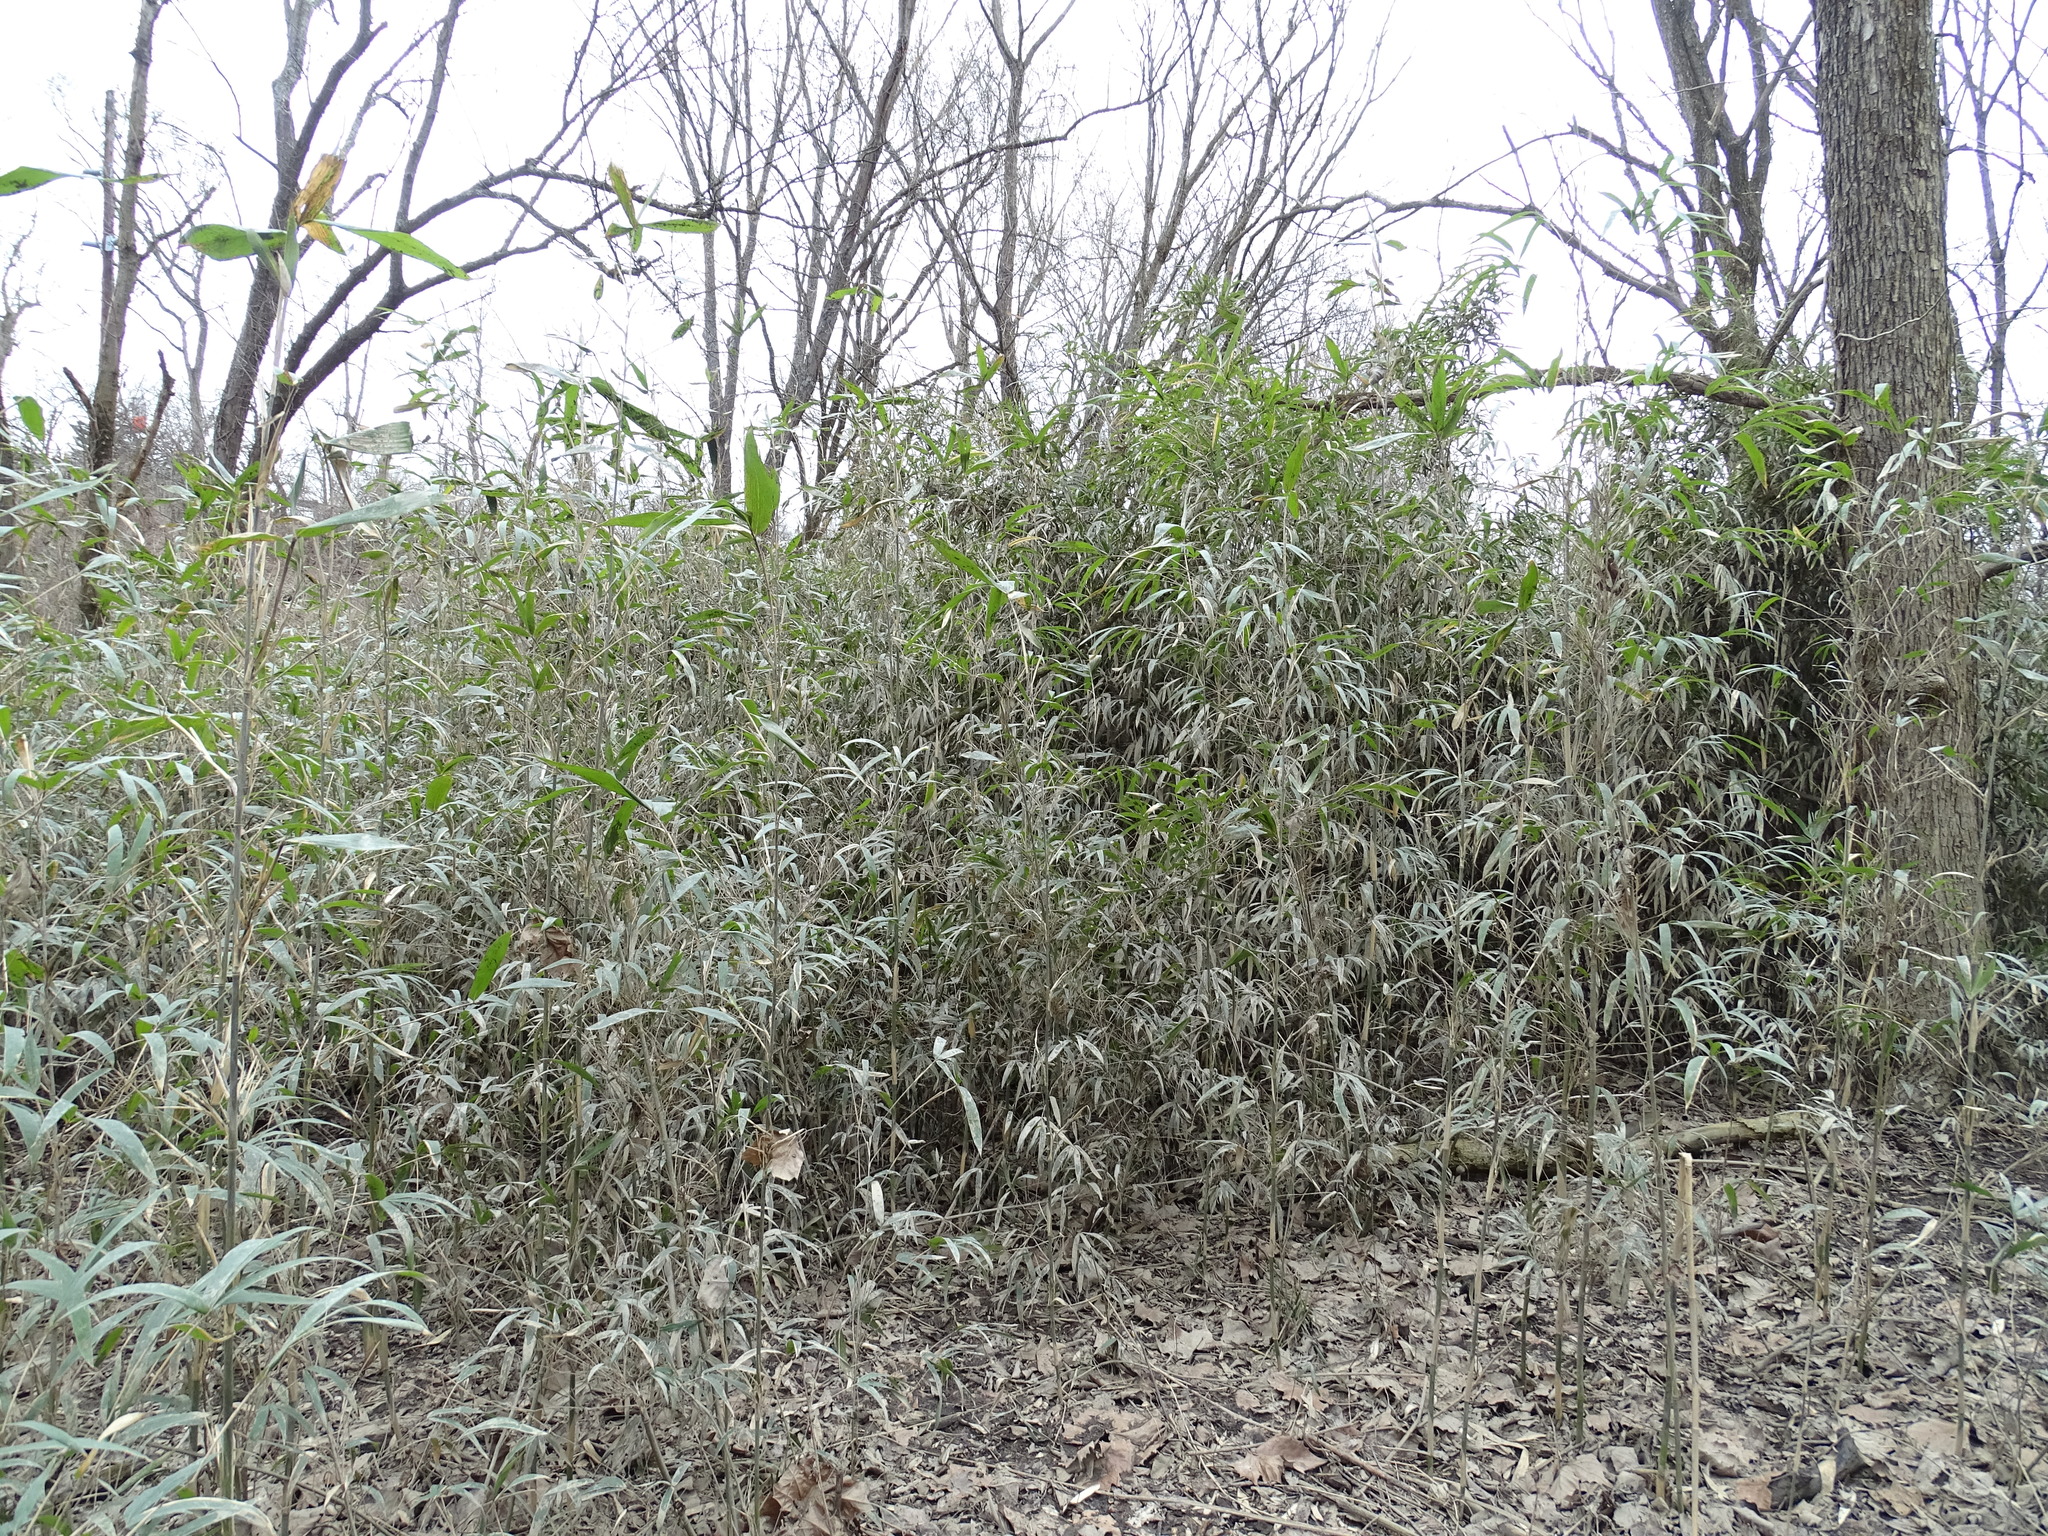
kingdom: Plantae
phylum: Tracheophyta
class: Liliopsida
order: Poales
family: Poaceae
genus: Arundinaria
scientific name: Arundinaria gigantea
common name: Giant cane
